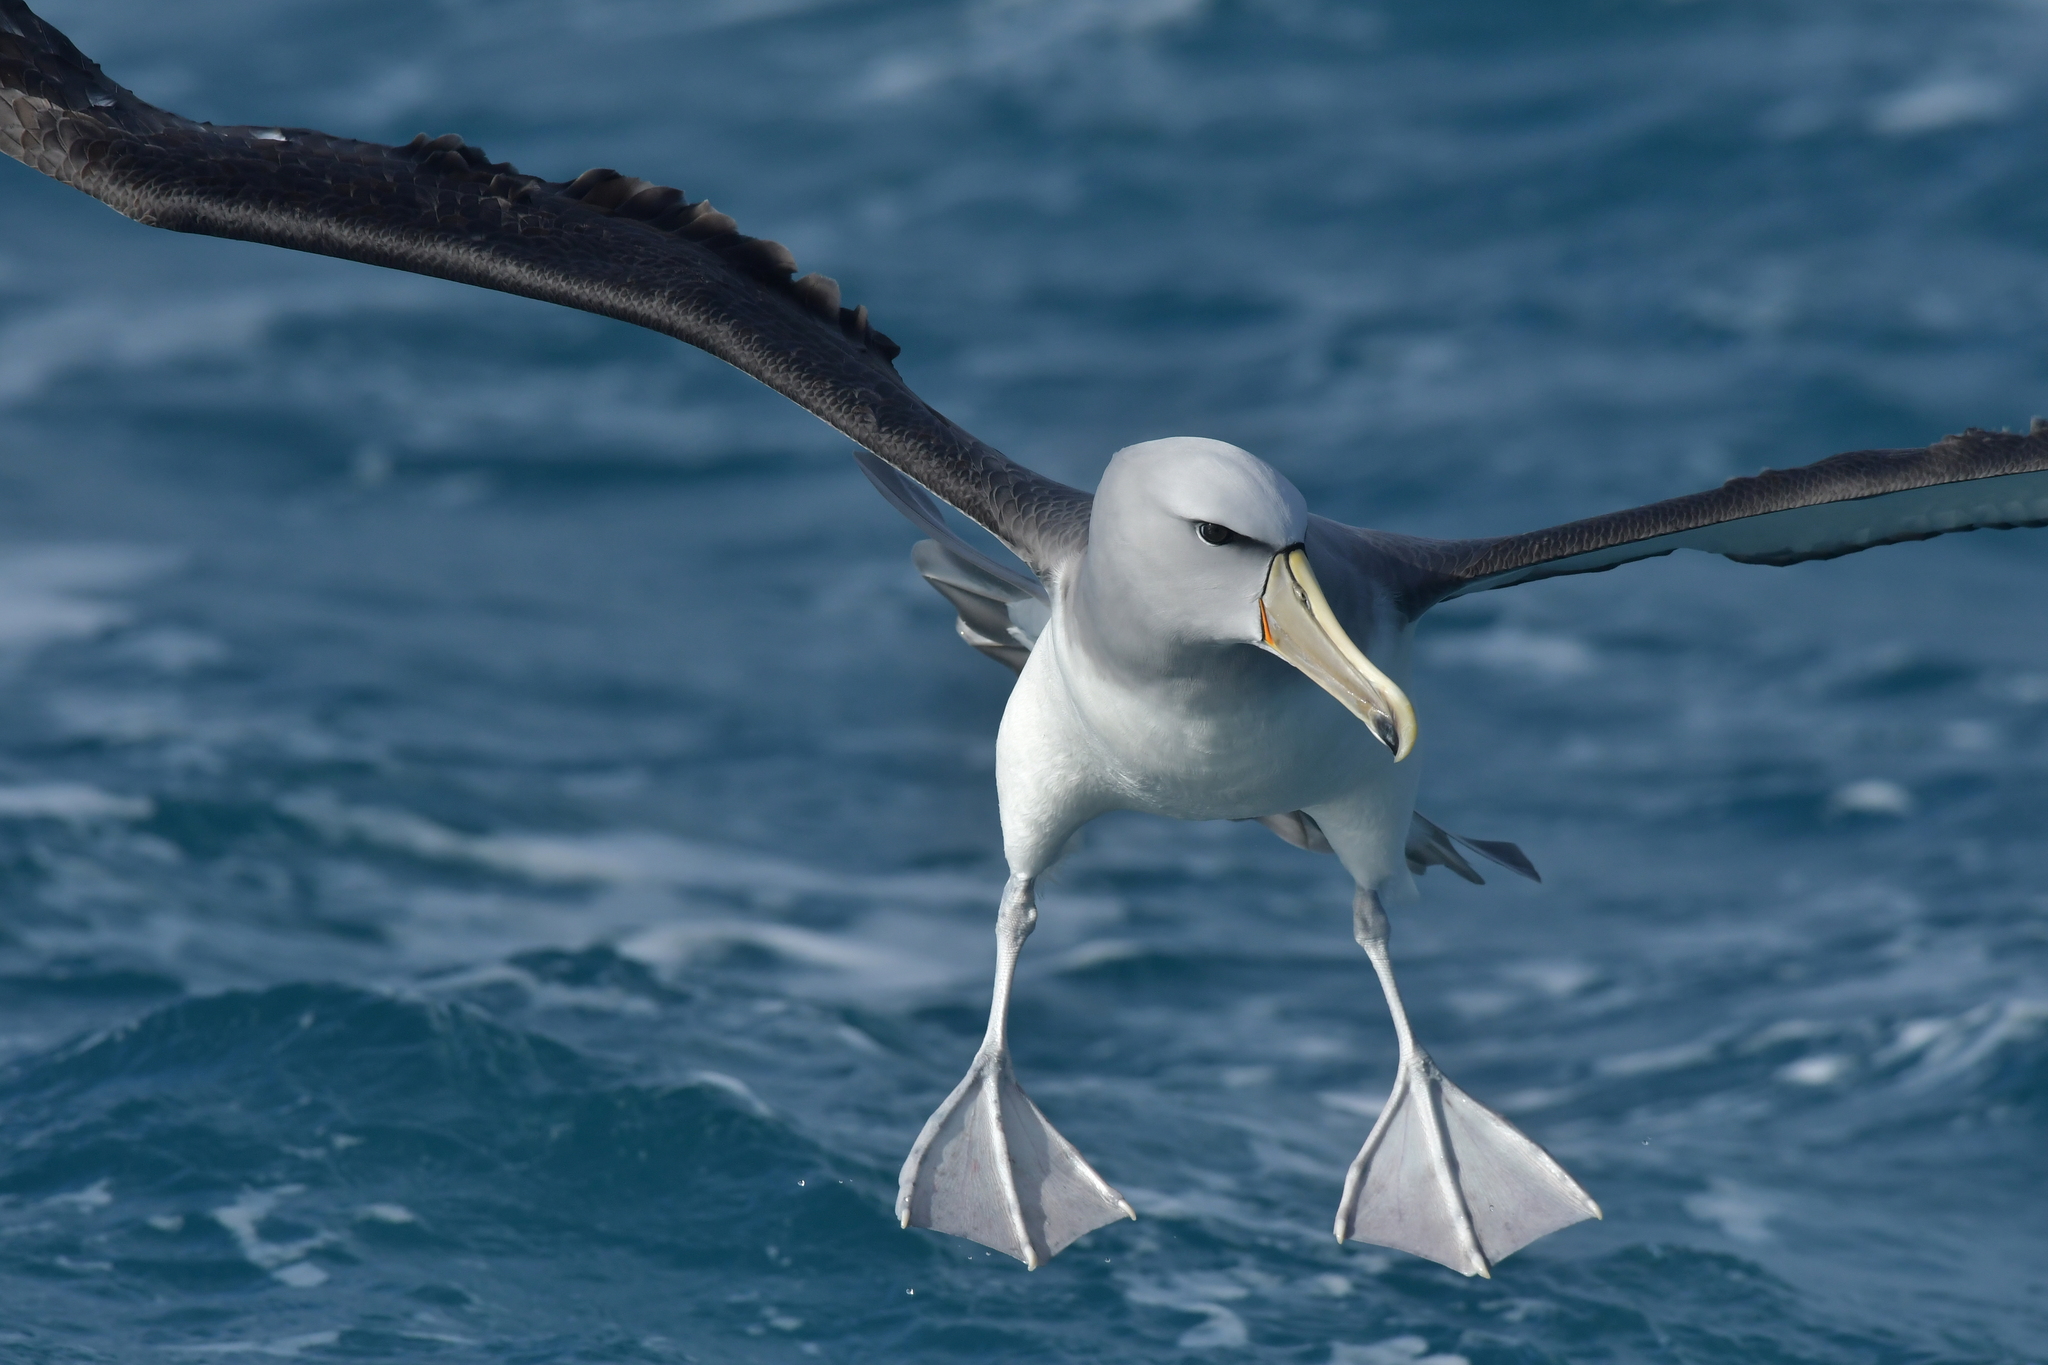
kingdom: Animalia
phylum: Chordata
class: Aves
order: Procellariiformes
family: Diomedeidae
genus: Thalassarche
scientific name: Thalassarche salvini
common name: Salvin's albatross
